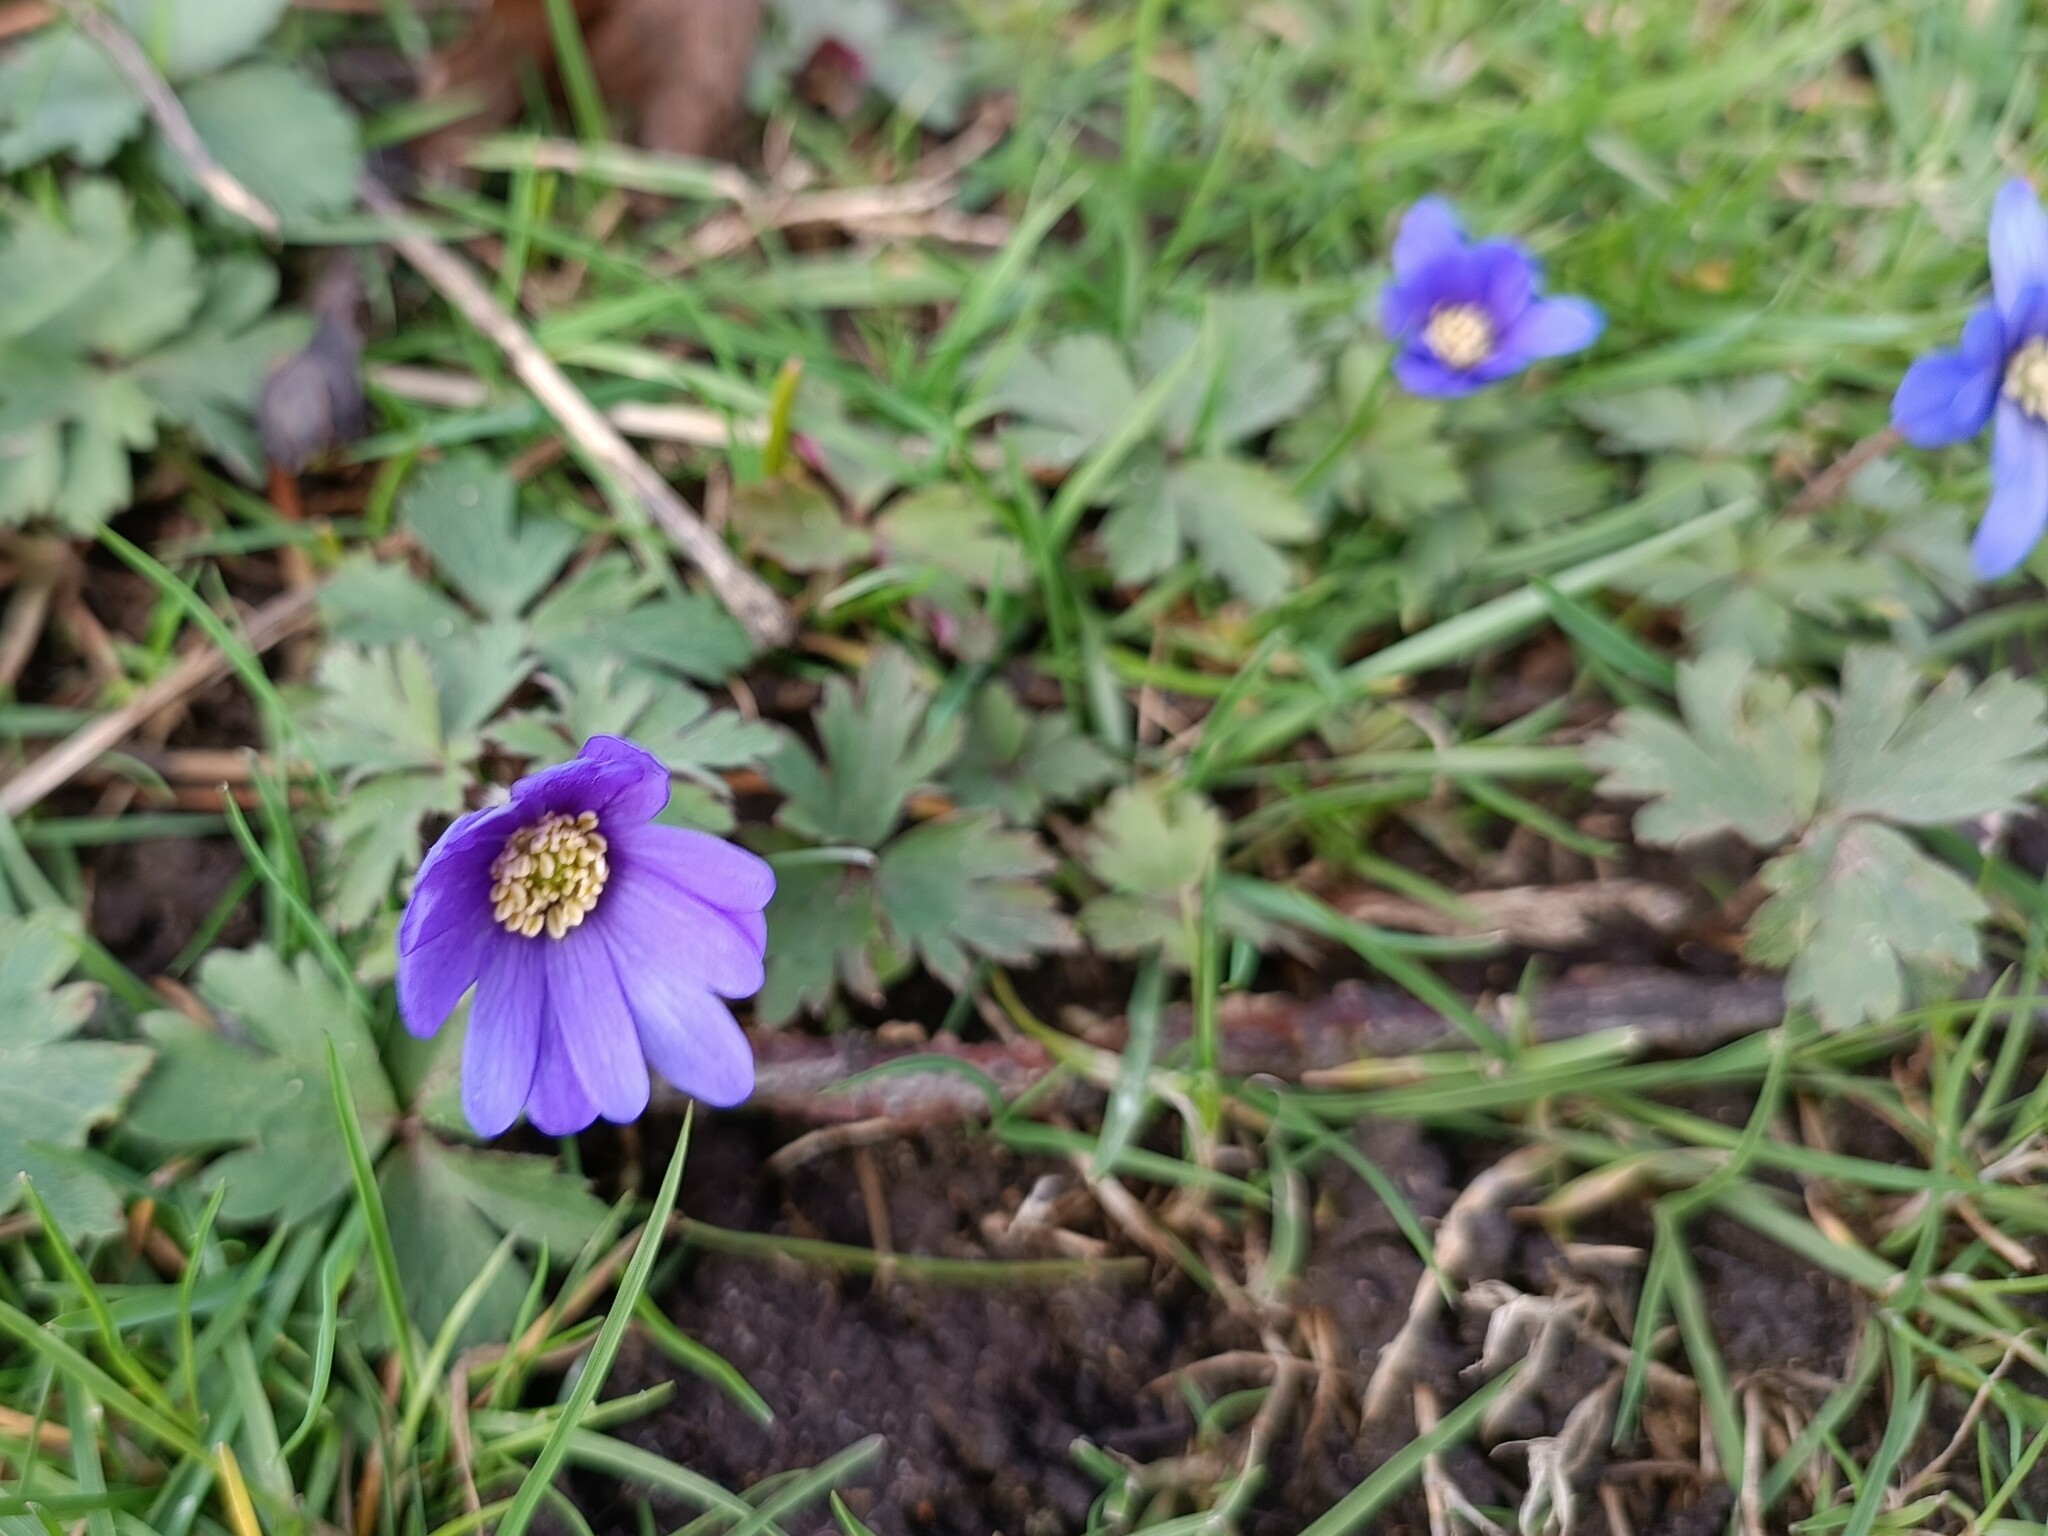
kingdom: Plantae
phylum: Tracheophyta
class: Magnoliopsida
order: Ranunculales
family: Ranunculaceae
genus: Anemone
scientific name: Anemone blanda
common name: Balkan anemone
